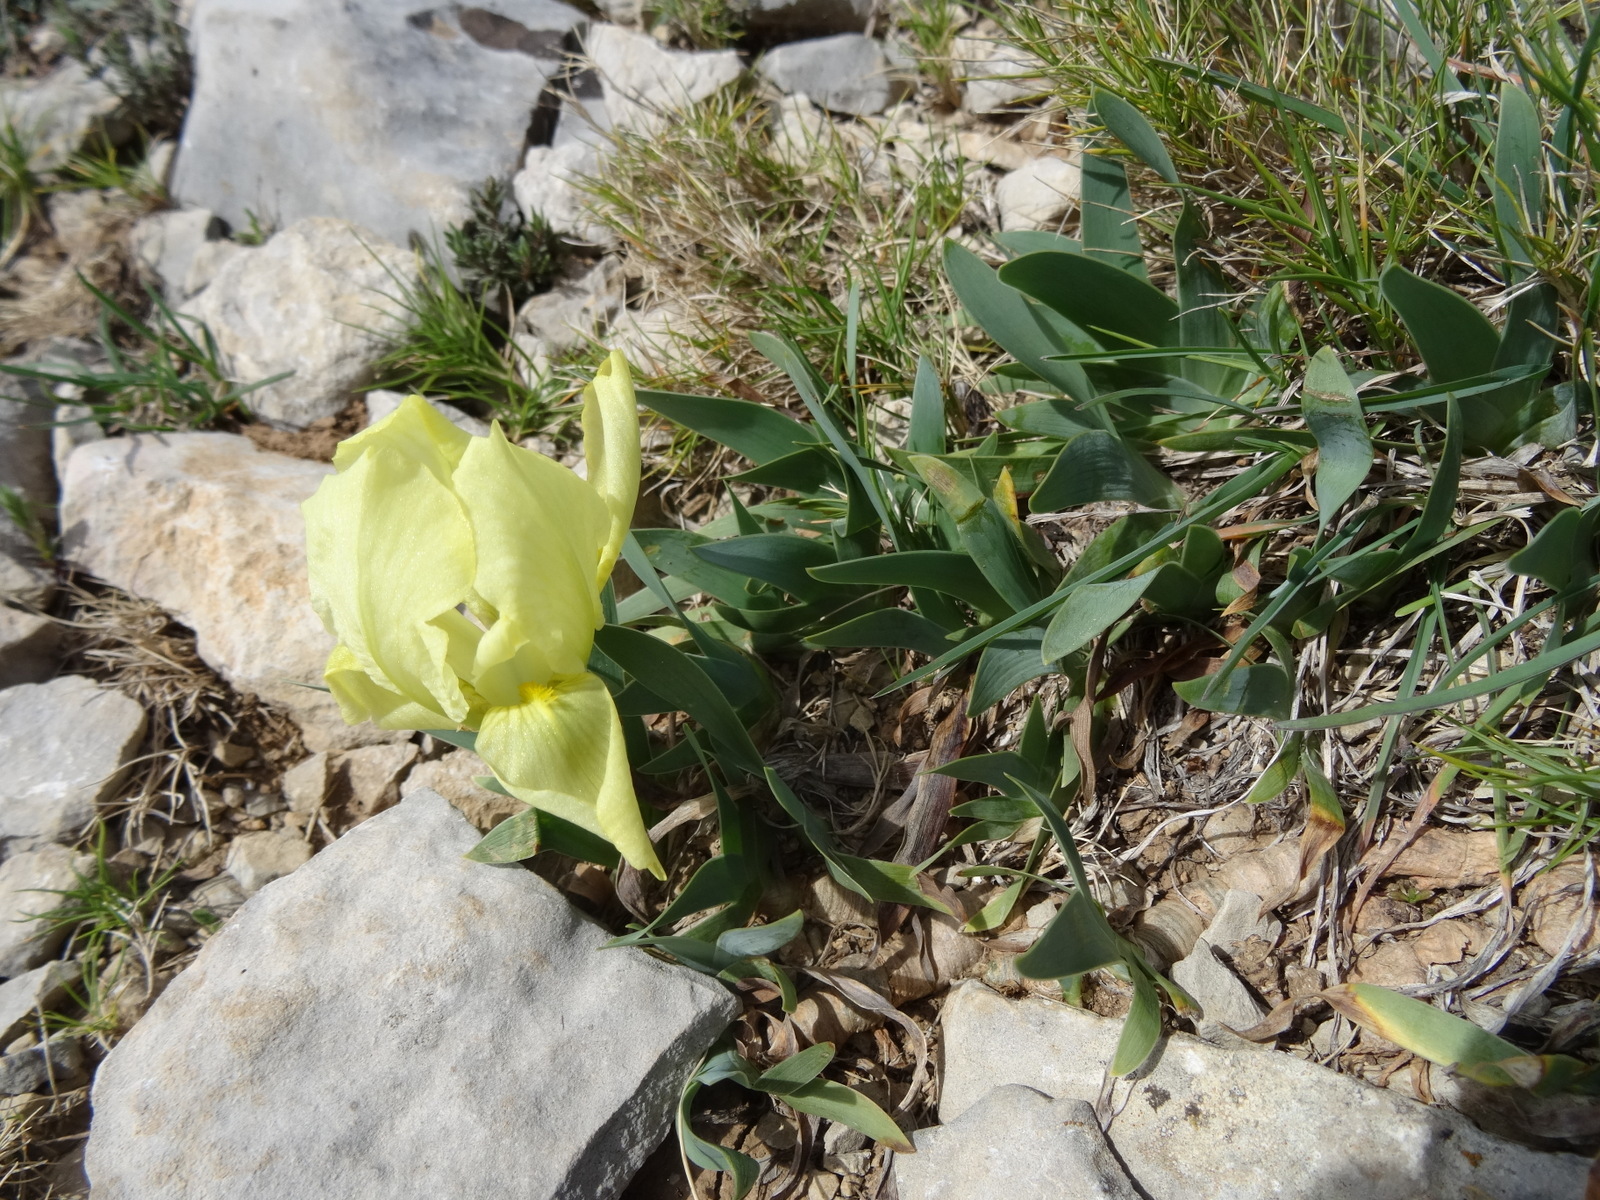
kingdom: Plantae
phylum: Tracheophyta
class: Liliopsida
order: Asparagales
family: Iridaceae
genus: Iris
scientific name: Iris lutescens
